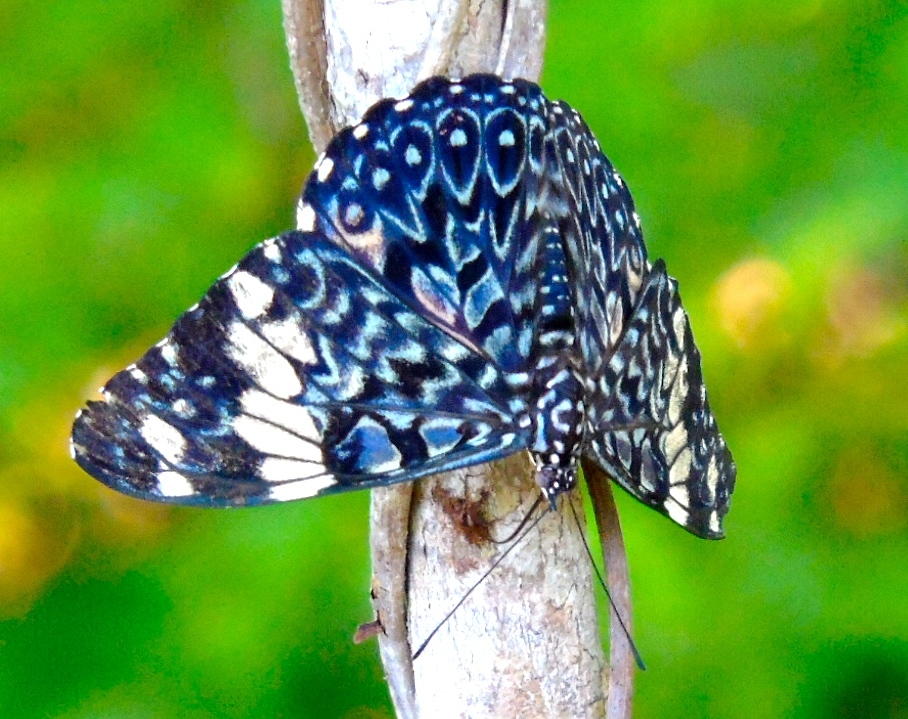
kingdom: Animalia
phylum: Arthropoda
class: Insecta
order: Lepidoptera
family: Nymphalidae
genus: Hamadryas
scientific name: Hamadryas amphinome
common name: Red cracker
